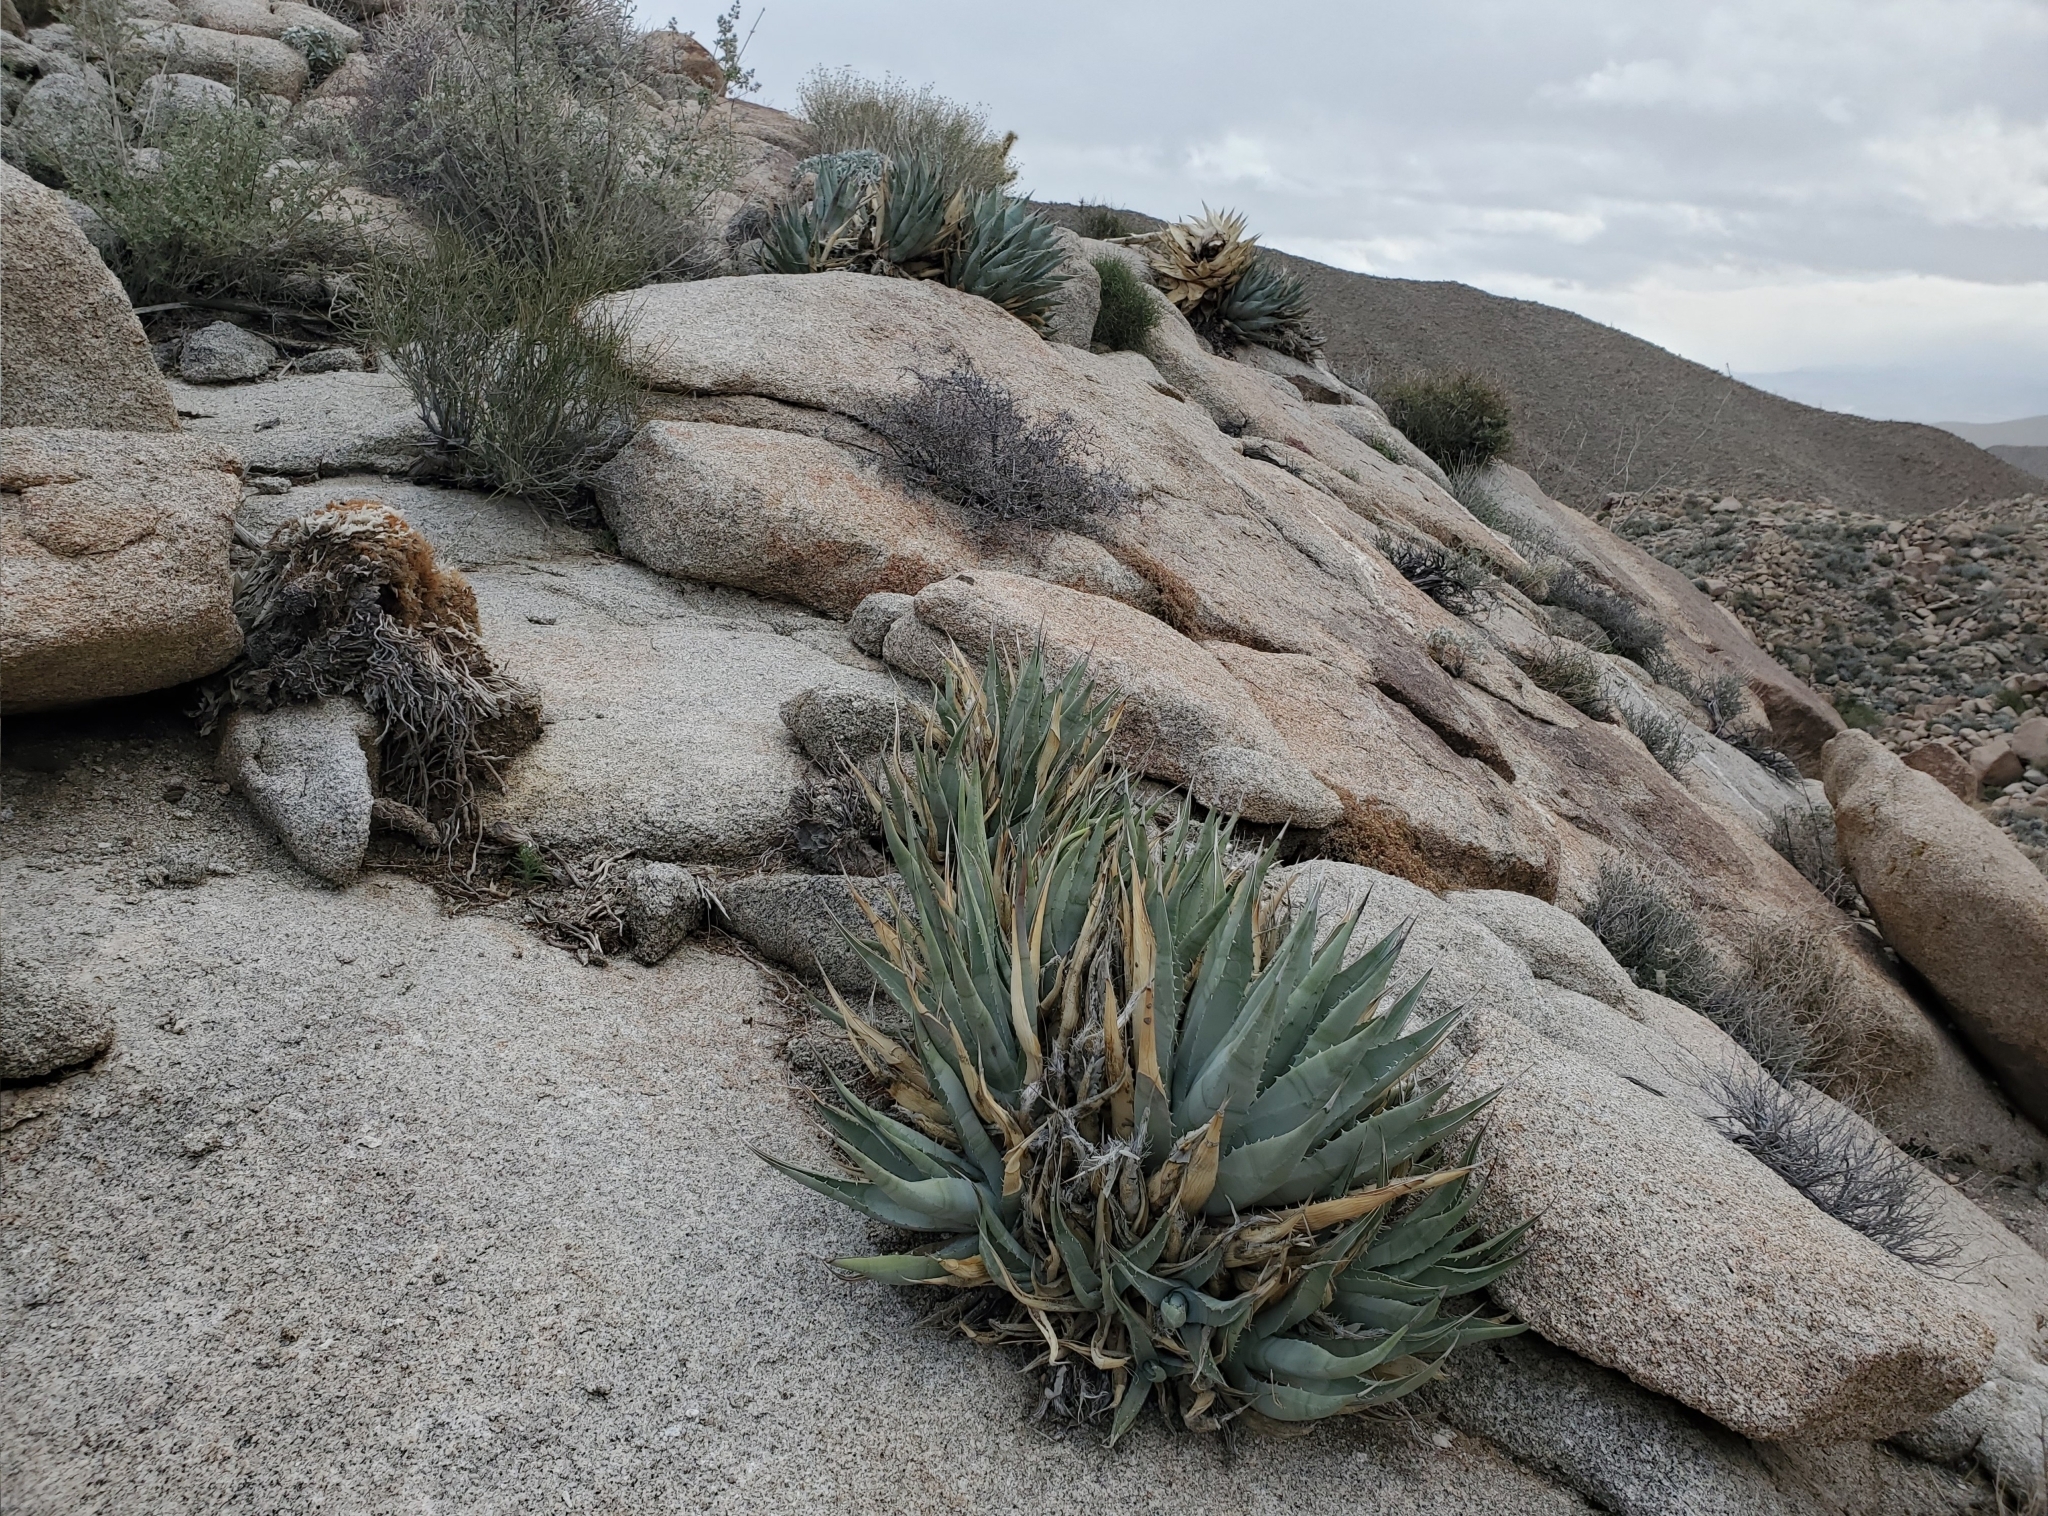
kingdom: Plantae
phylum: Tracheophyta
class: Liliopsida
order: Asparagales
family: Asparagaceae
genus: Agave
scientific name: Agave deserti
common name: Desert agave
